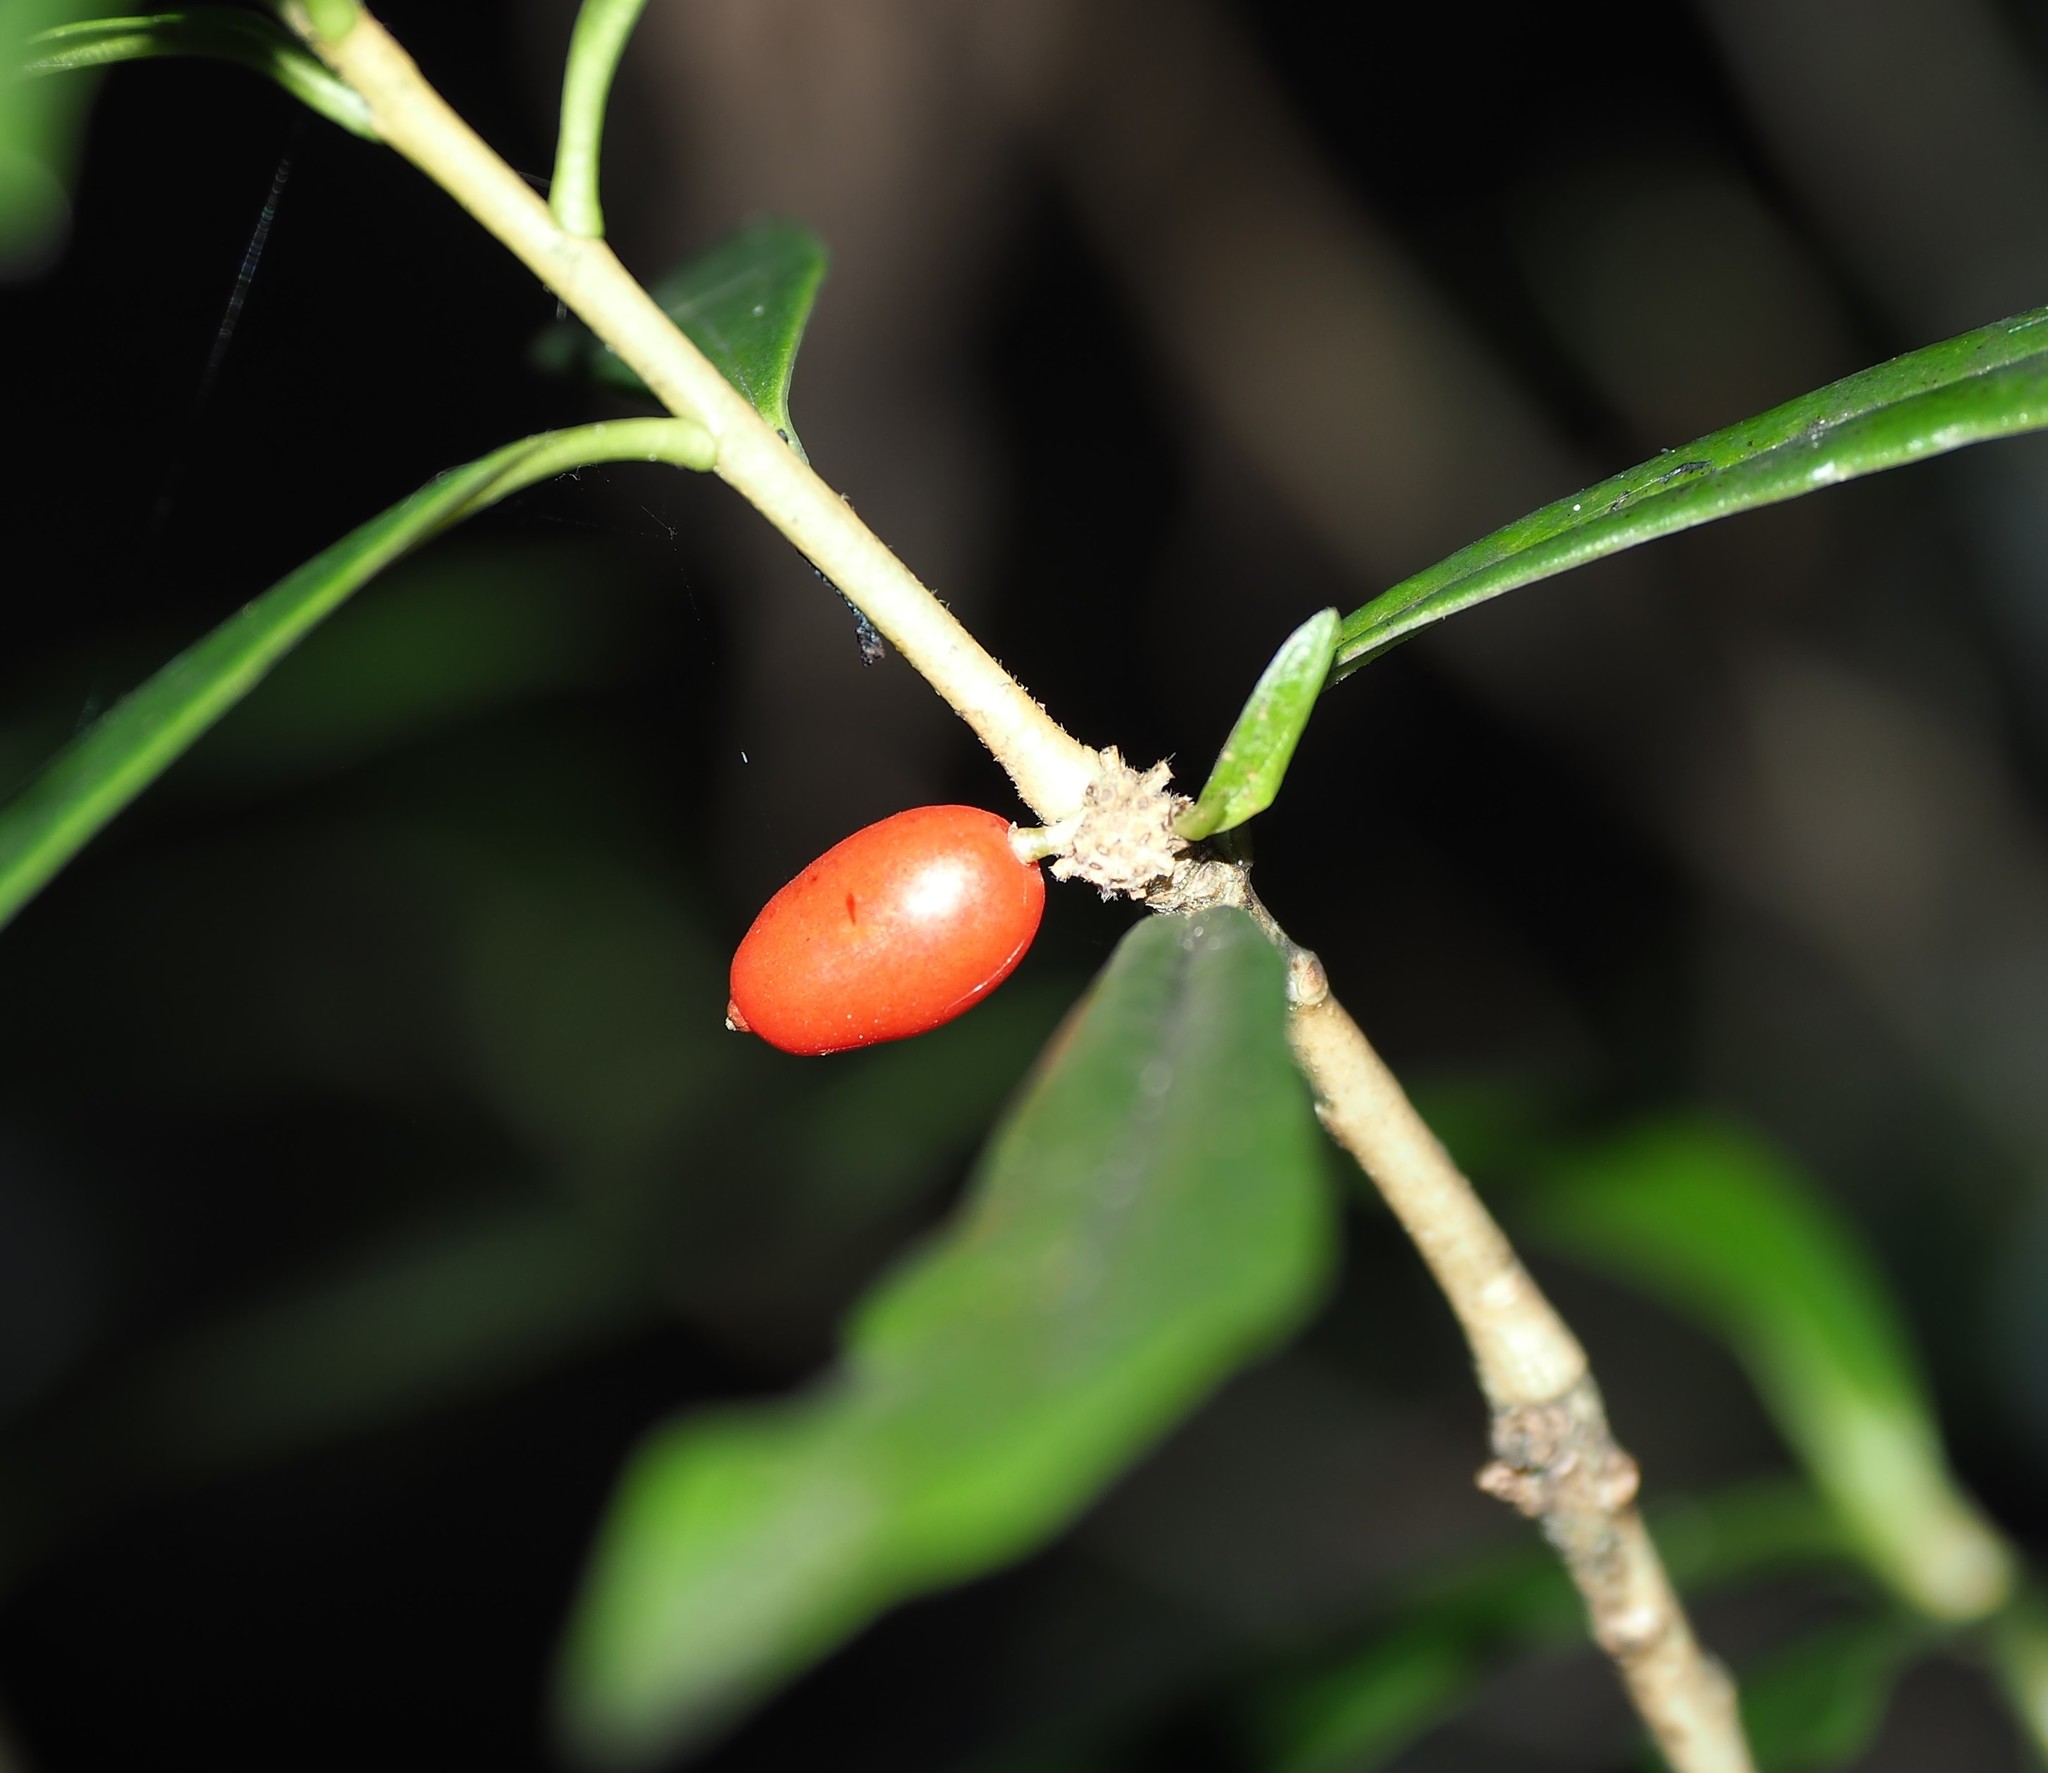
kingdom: Plantae
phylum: Tracheophyta
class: Magnoliopsida
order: Malvales
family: Thymelaeaceae
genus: Daphne
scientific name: Daphne arisanensis
